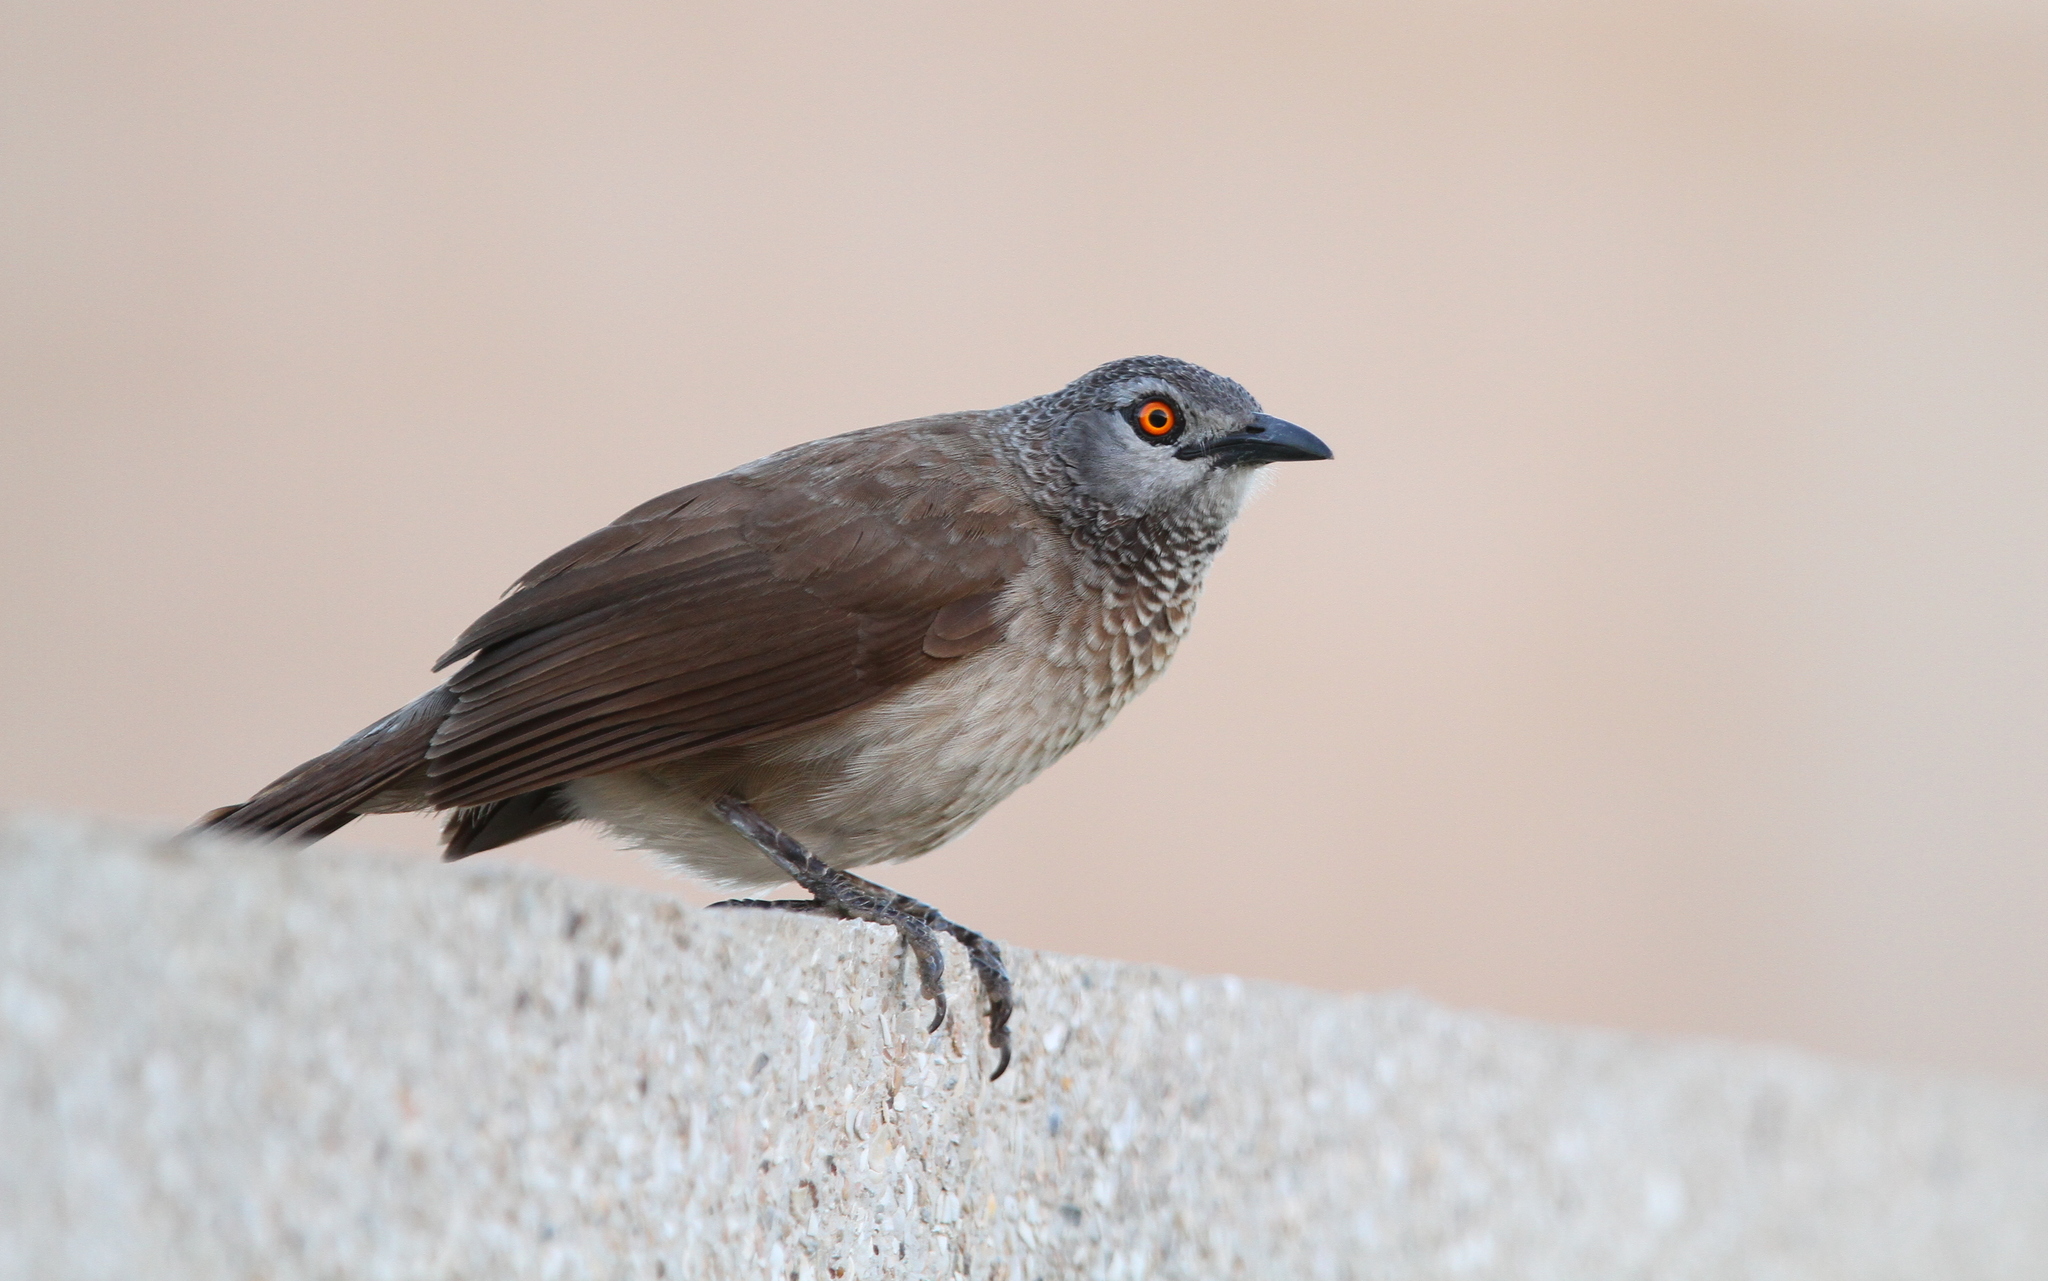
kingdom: Animalia
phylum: Chordata
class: Aves
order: Passeriformes
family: Leiothrichidae
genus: Turdoides
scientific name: Turdoides plebejus
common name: Brown babbler
